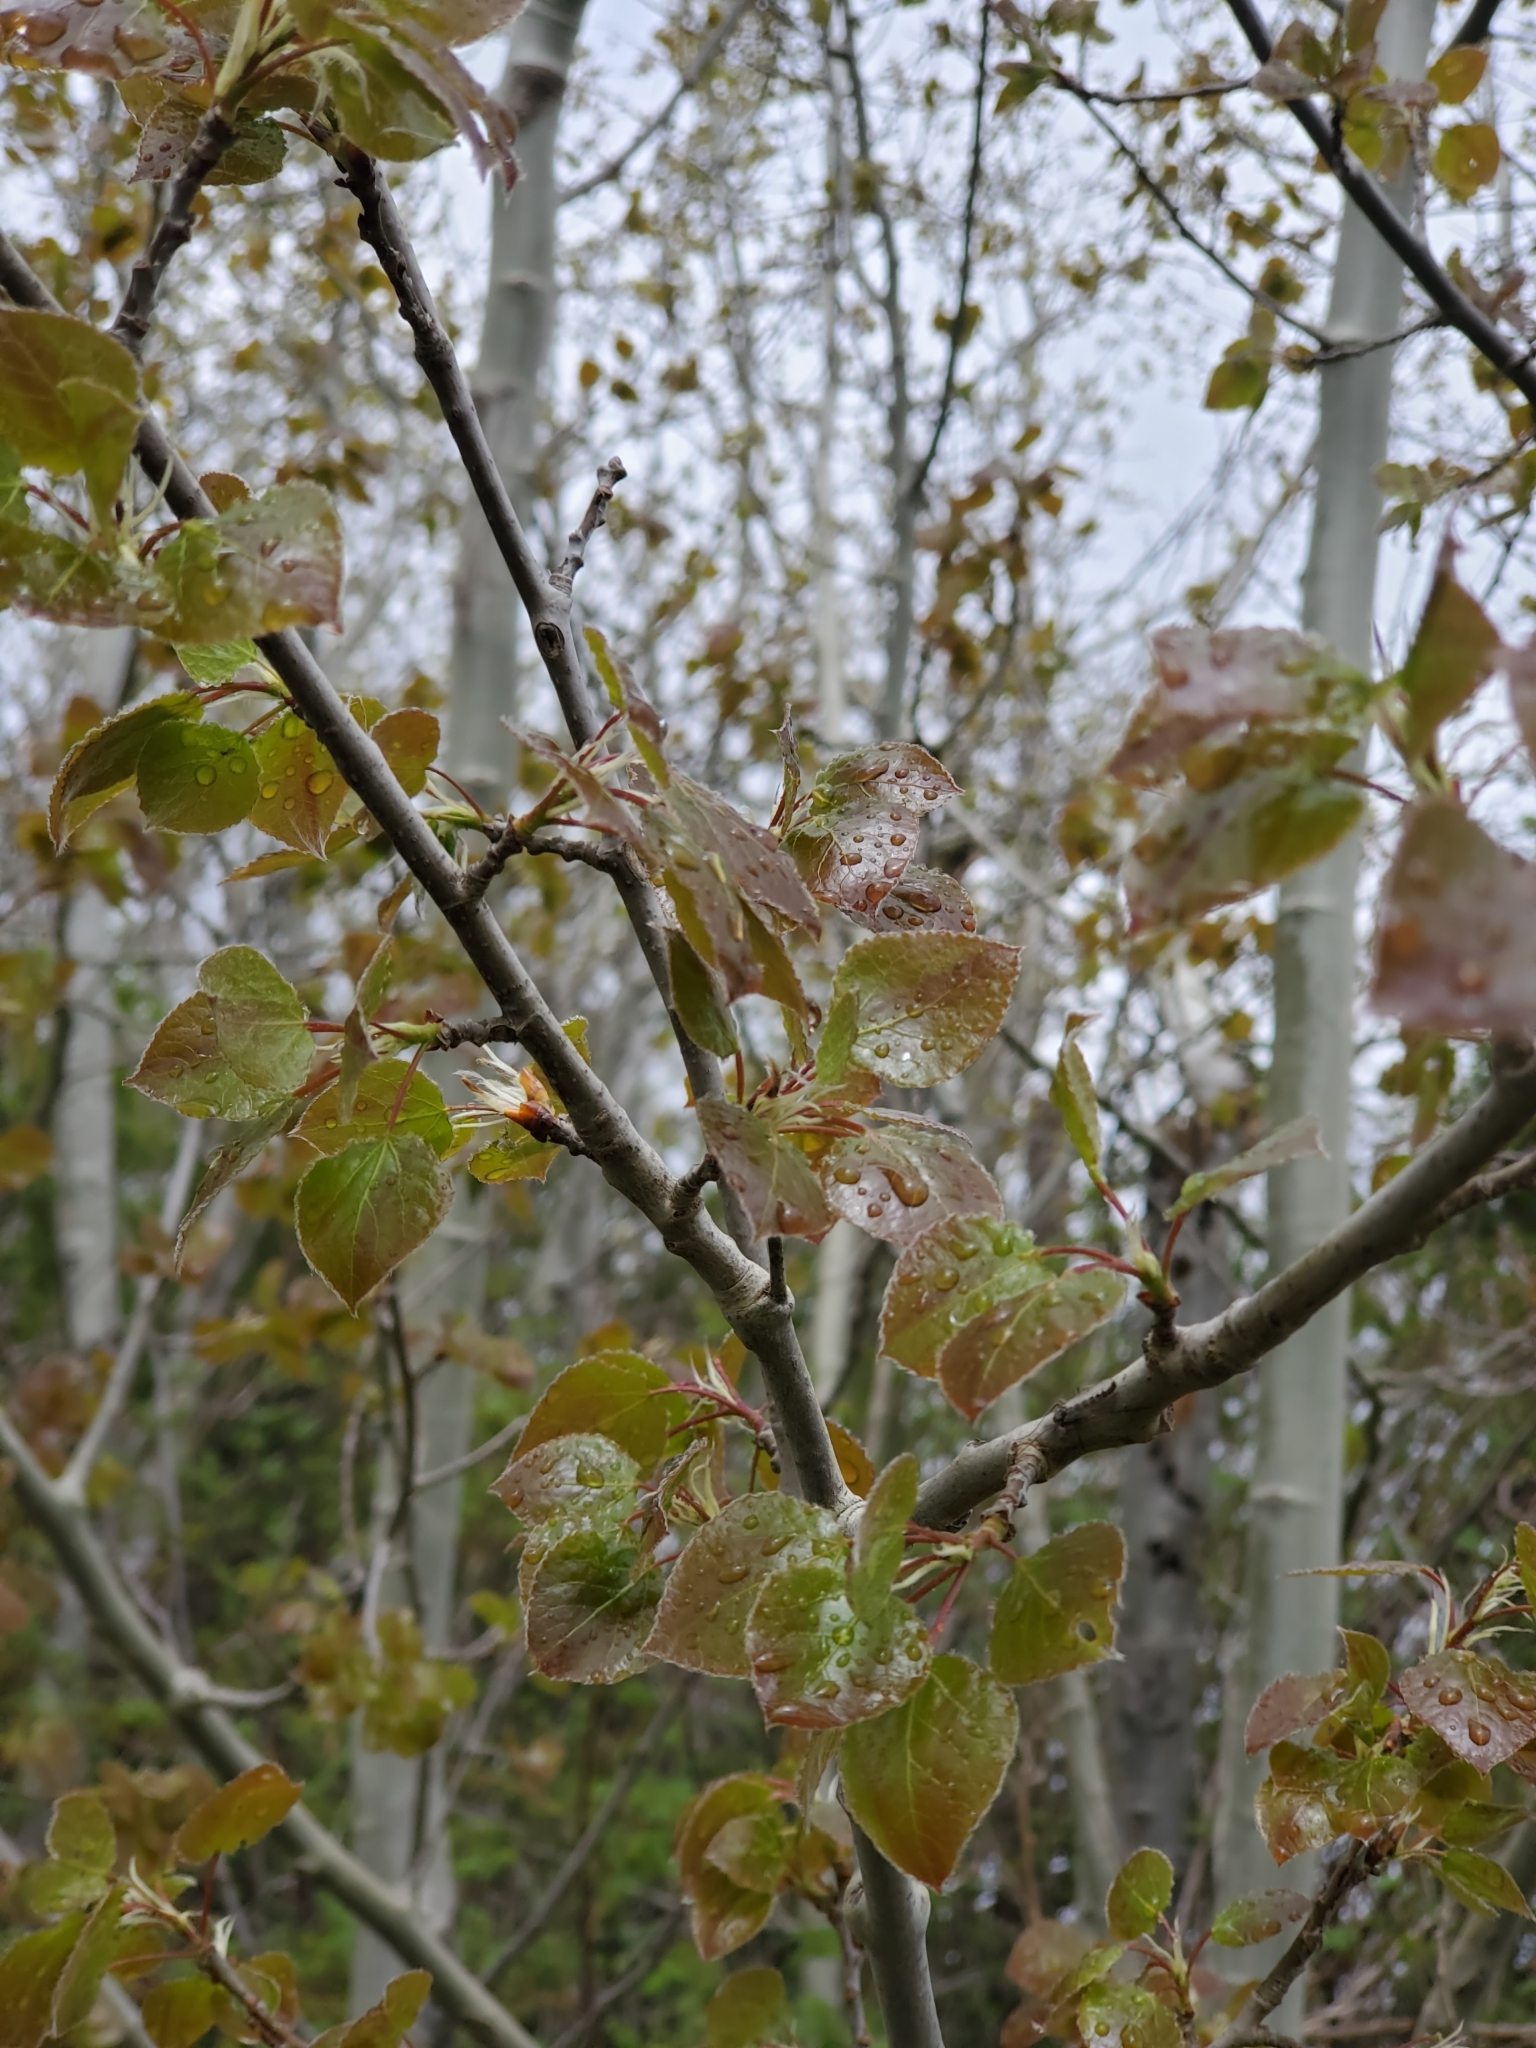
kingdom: Plantae
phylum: Tracheophyta
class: Magnoliopsida
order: Malpighiales
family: Salicaceae
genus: Populus
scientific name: Populus tremuloides
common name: Quaking aspen
